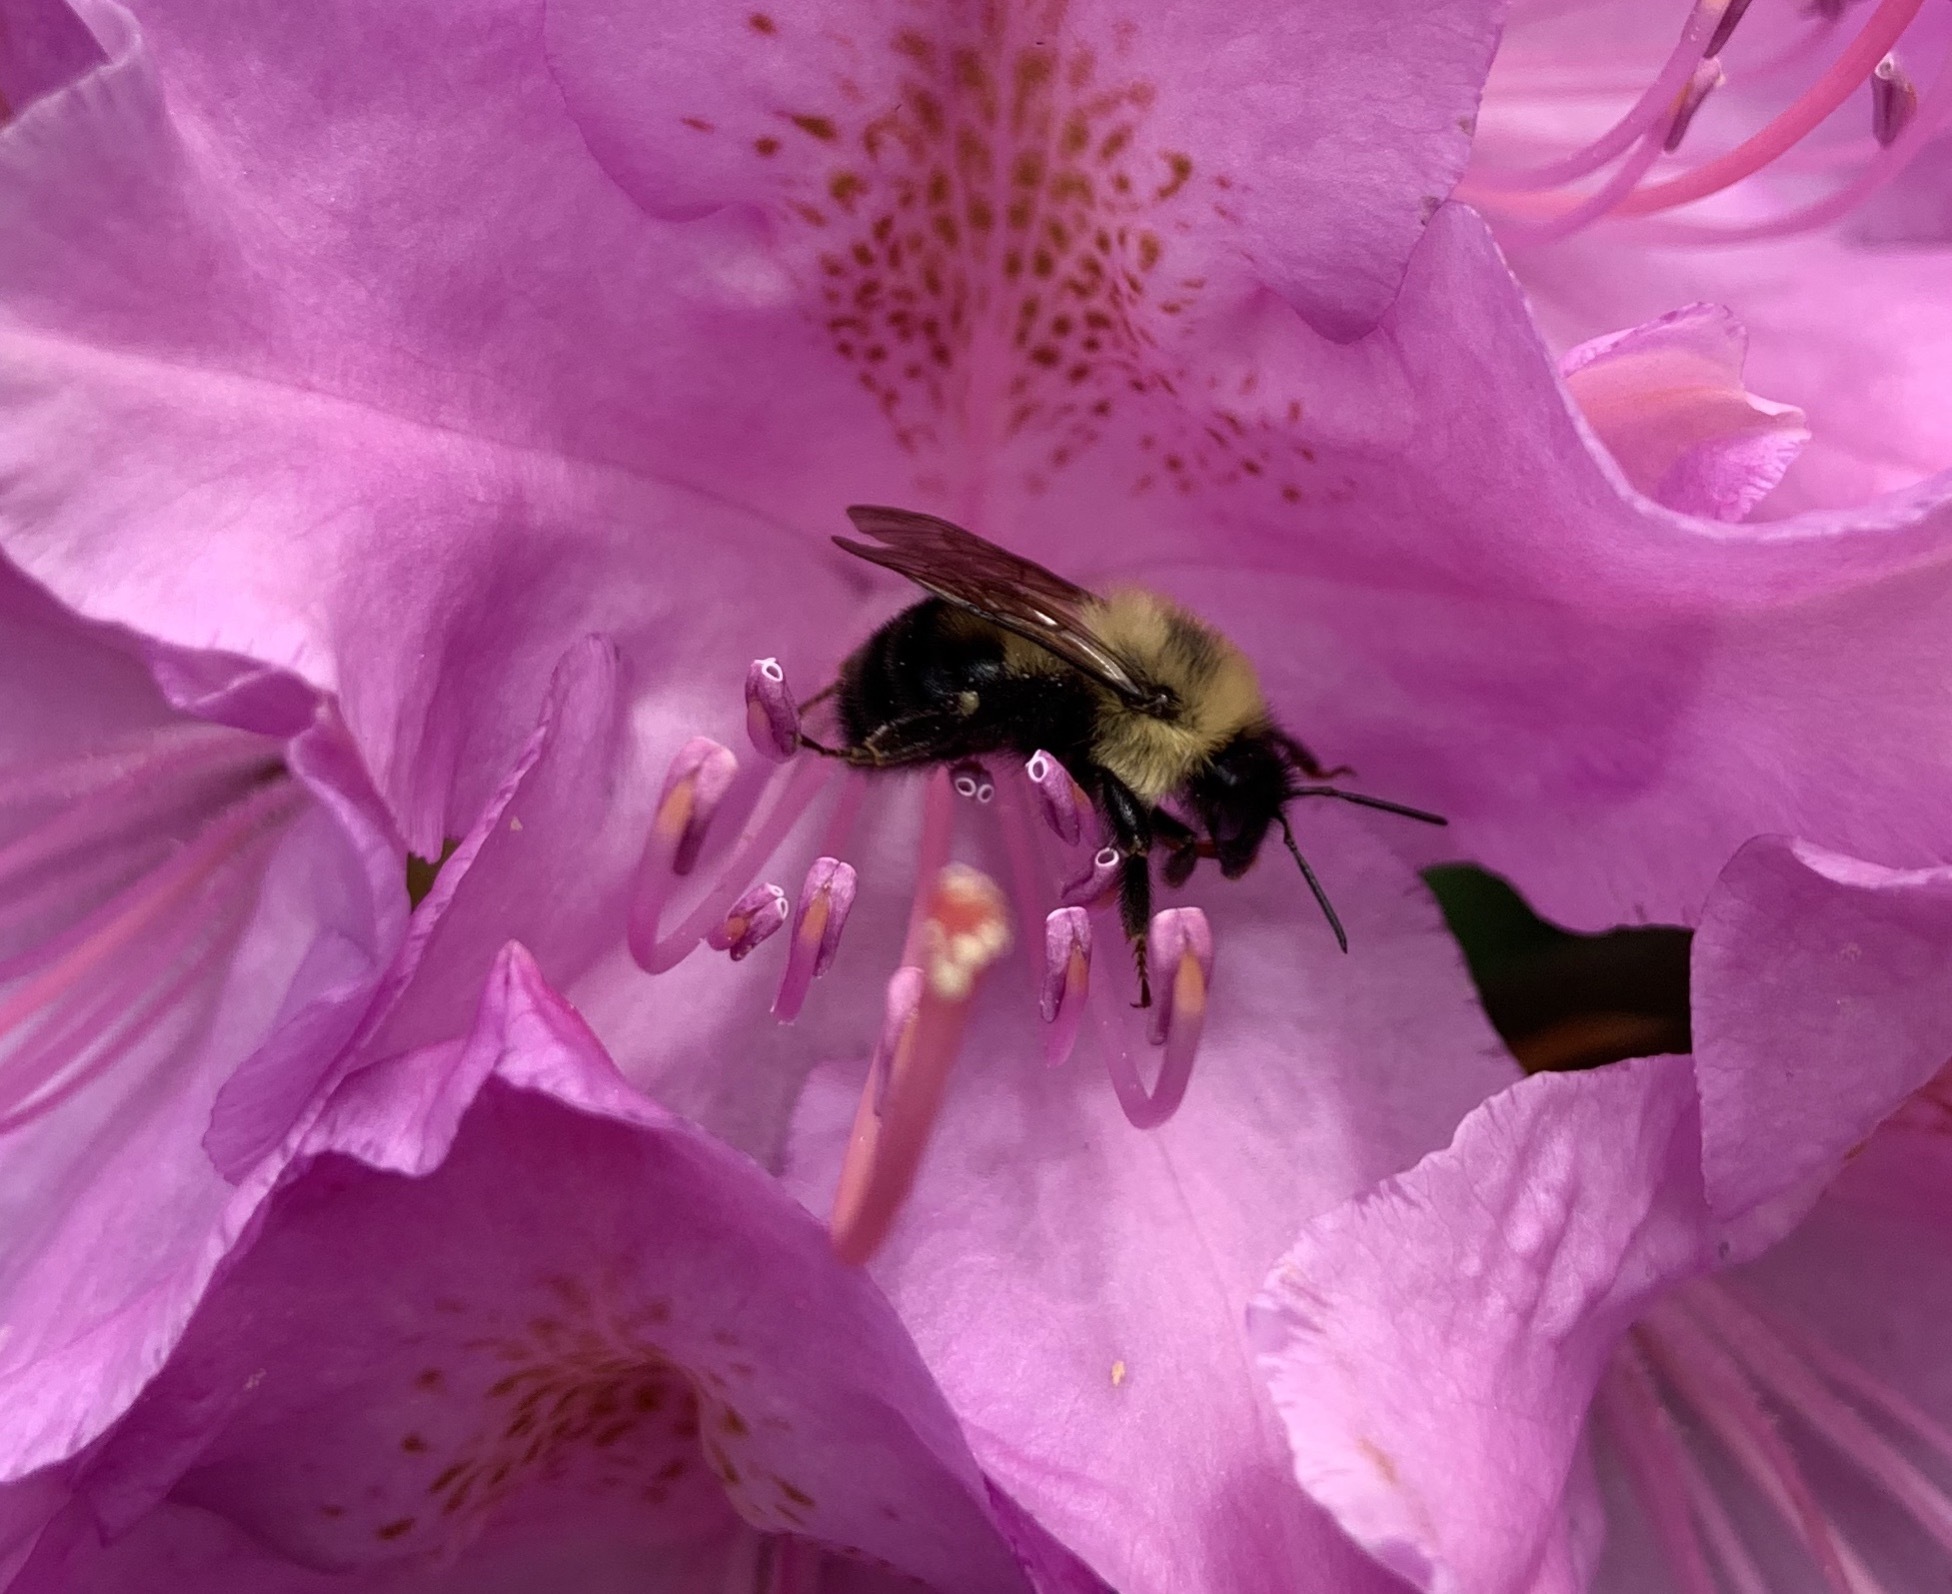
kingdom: Animalia
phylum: Arthropoda
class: Insecta
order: Hymenoptera
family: Apidae
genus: Bombus
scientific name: Bombus bimaculatus
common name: Two-spotted bumble bee
